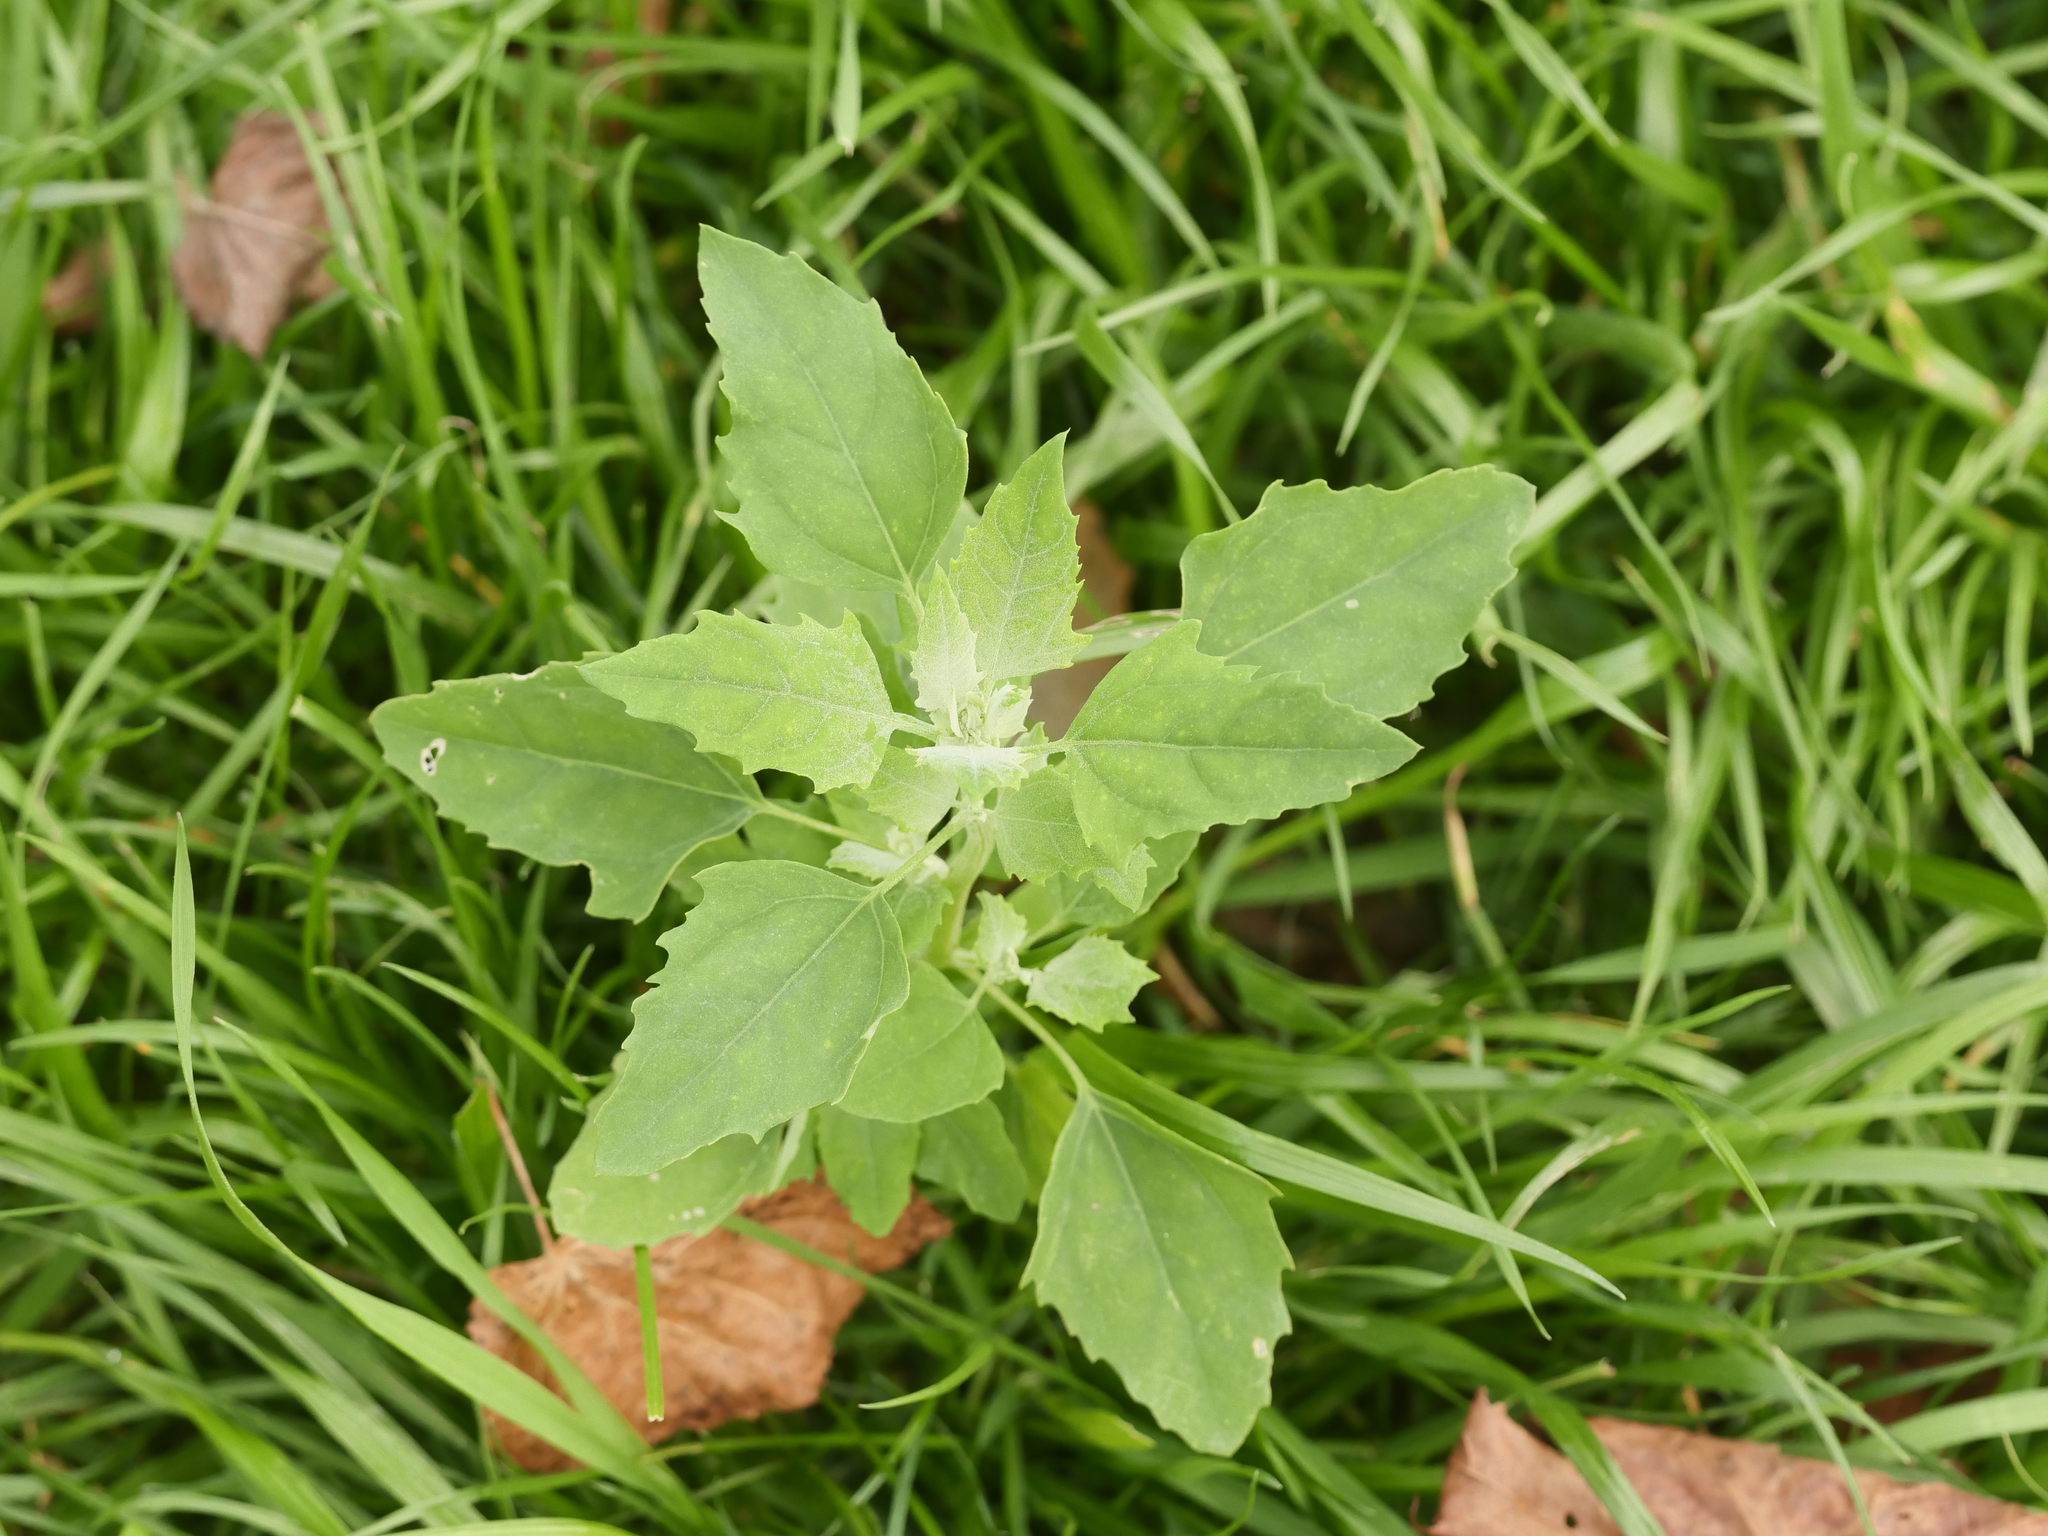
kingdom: Plantae
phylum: Tracheophyta
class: Magnoliopsida
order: Caryophyllales
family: Amaranthaceae
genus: Chenopodium
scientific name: Chenopodium album
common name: Fat-hen
